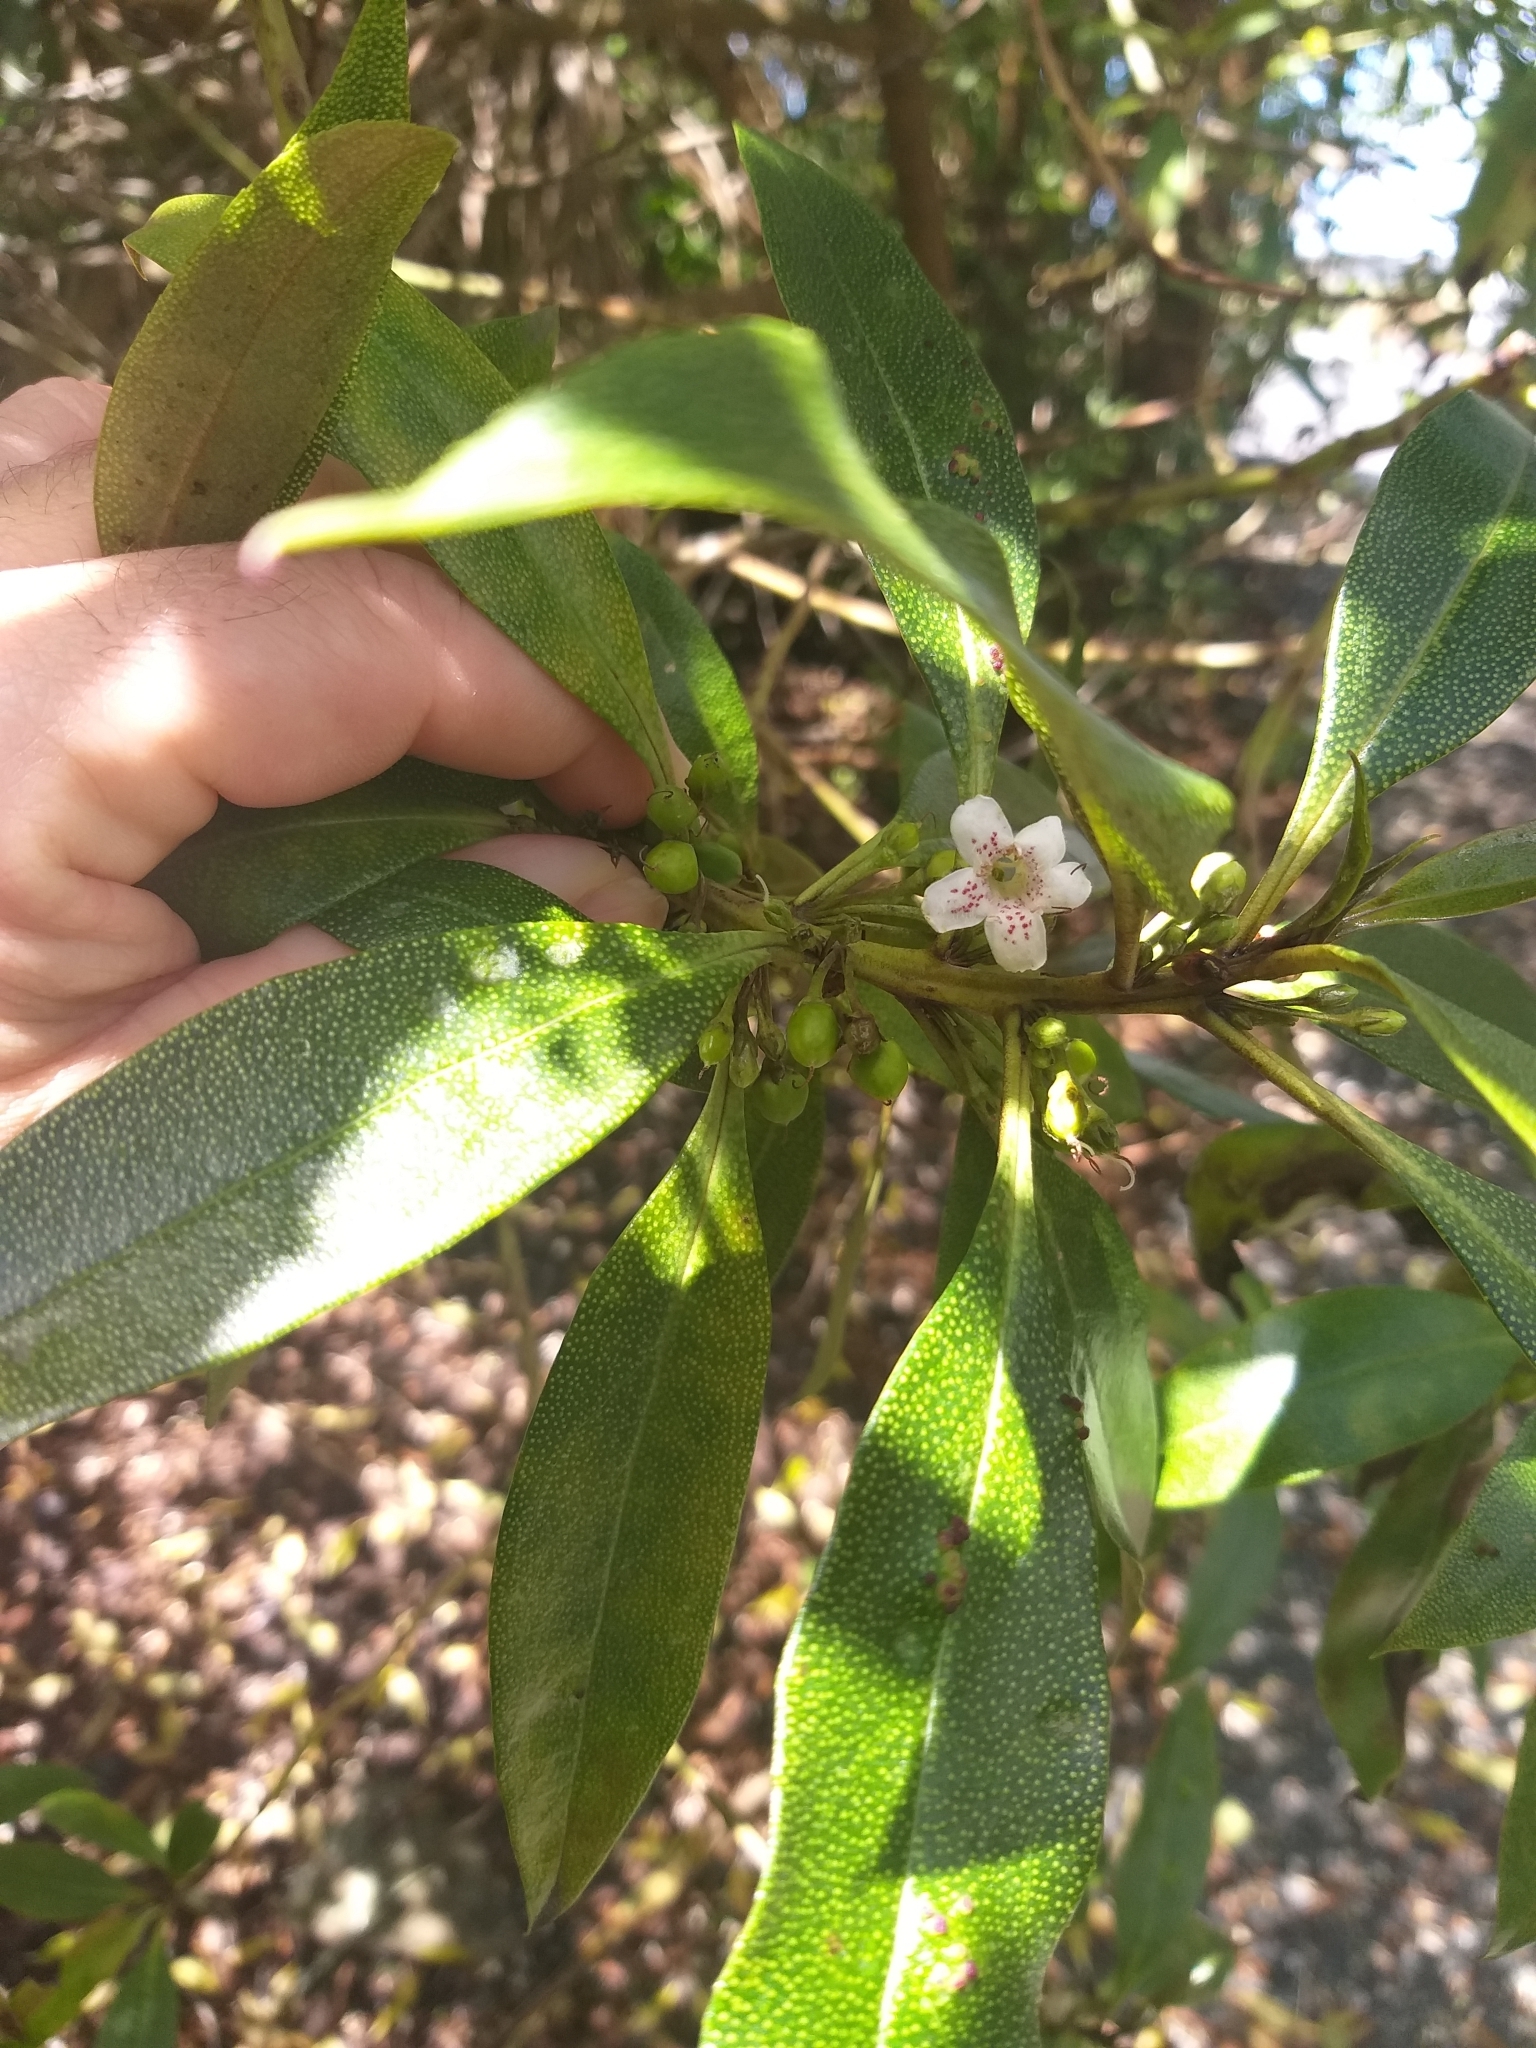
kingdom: Plantae
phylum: Tracheophyta
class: Magnoliopsida
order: Lamiales
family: Scrophulariaceae
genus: Myoporum
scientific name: Myoporum laetum
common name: Ngaio tree
